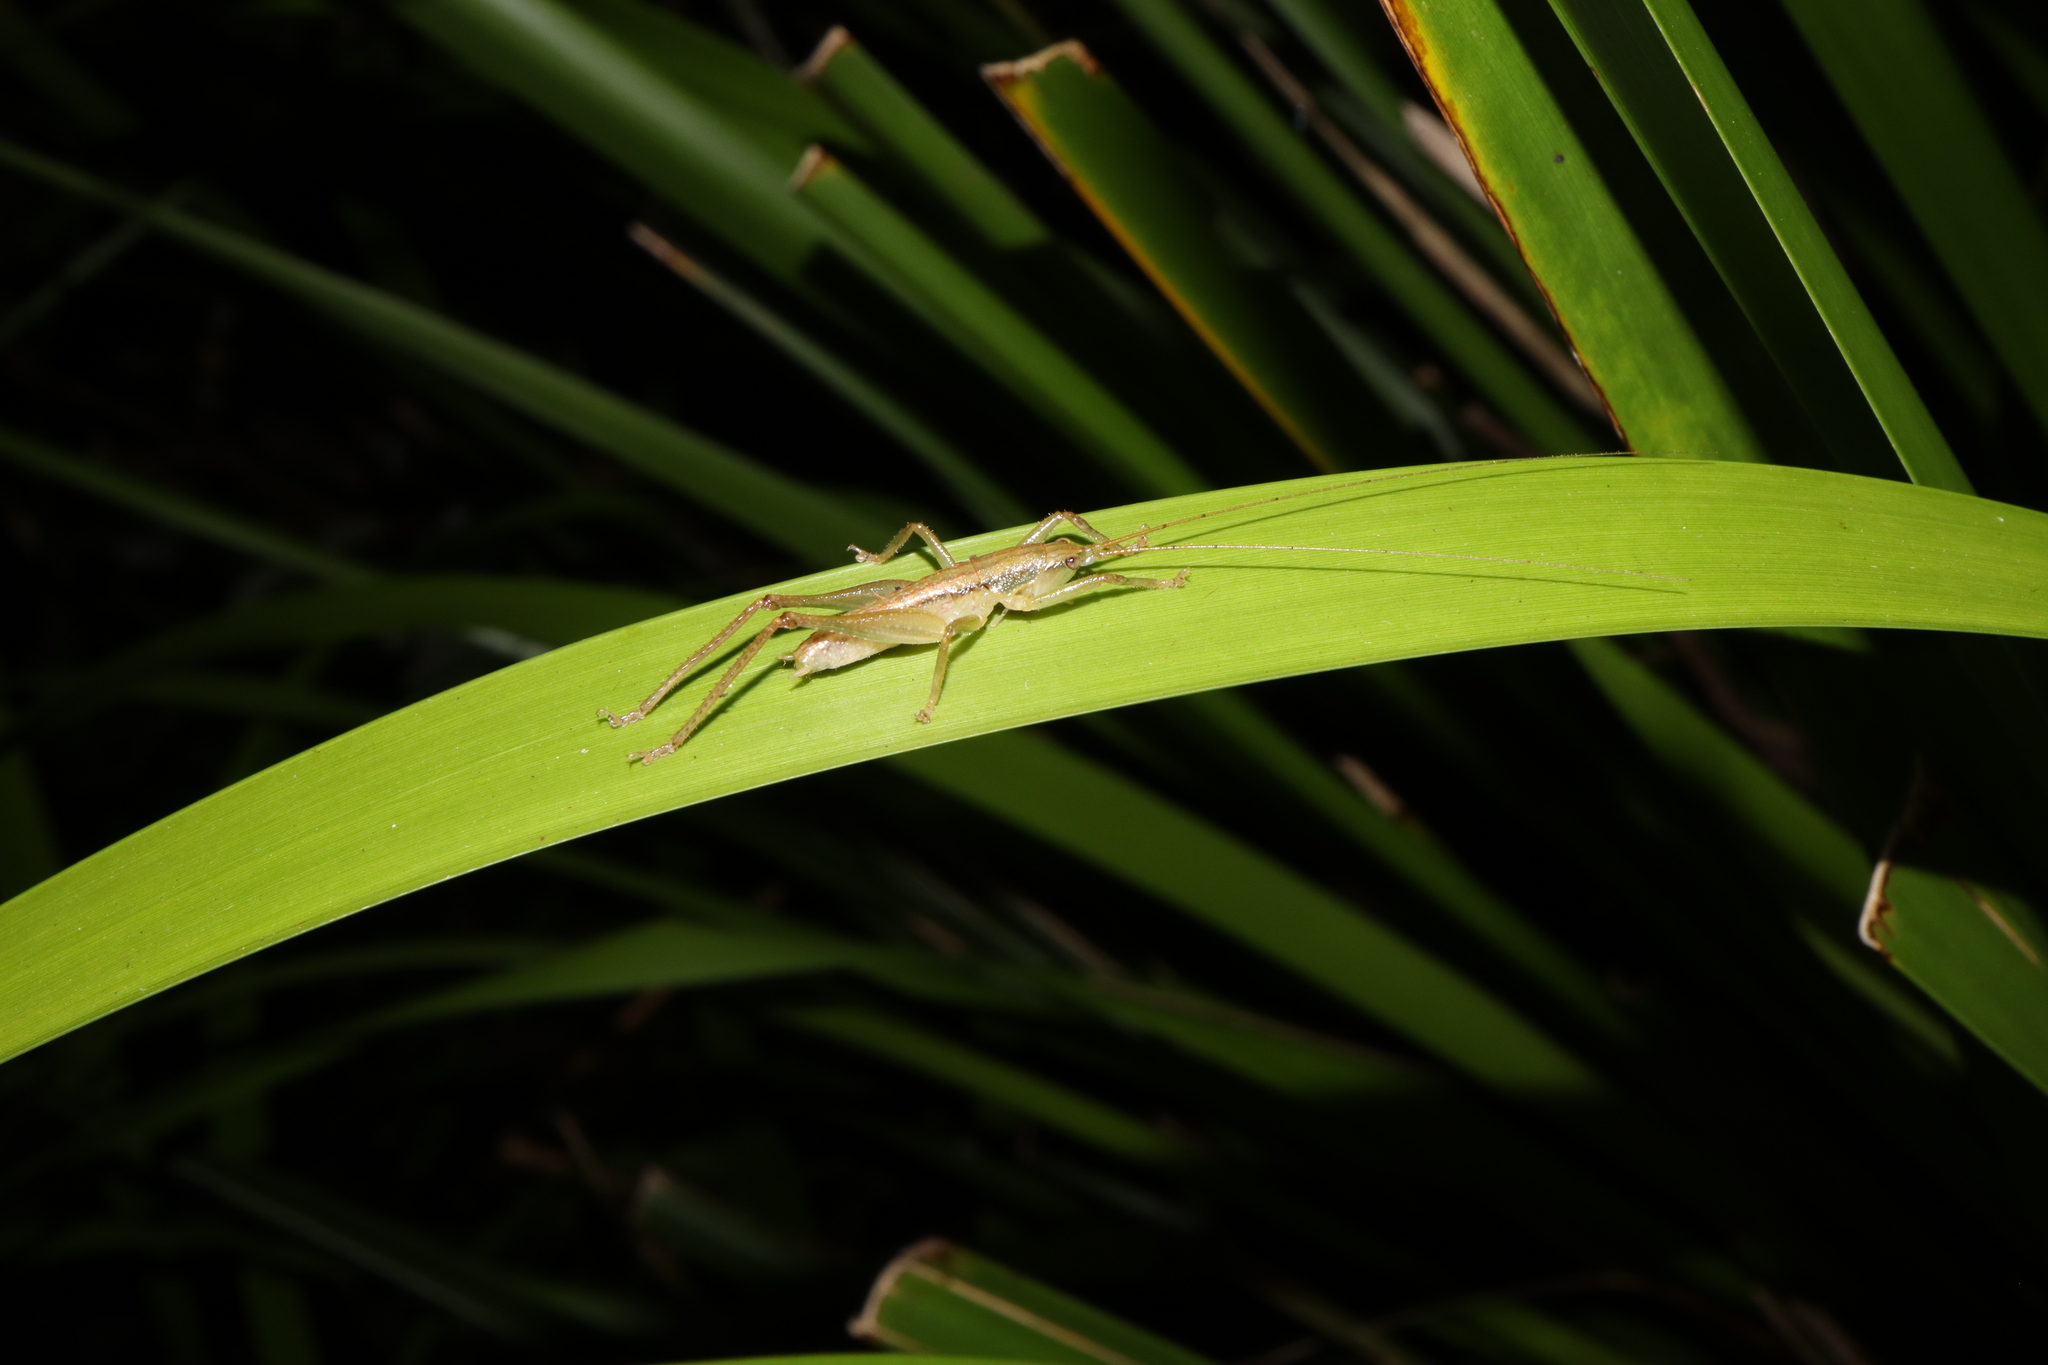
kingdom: Animalia
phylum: Arthropoda
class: Insecta
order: Orthoptera
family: Tettigoniidae
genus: Austrosalomona
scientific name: Austrosalomona falcata
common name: Olive-green coastal katydid
